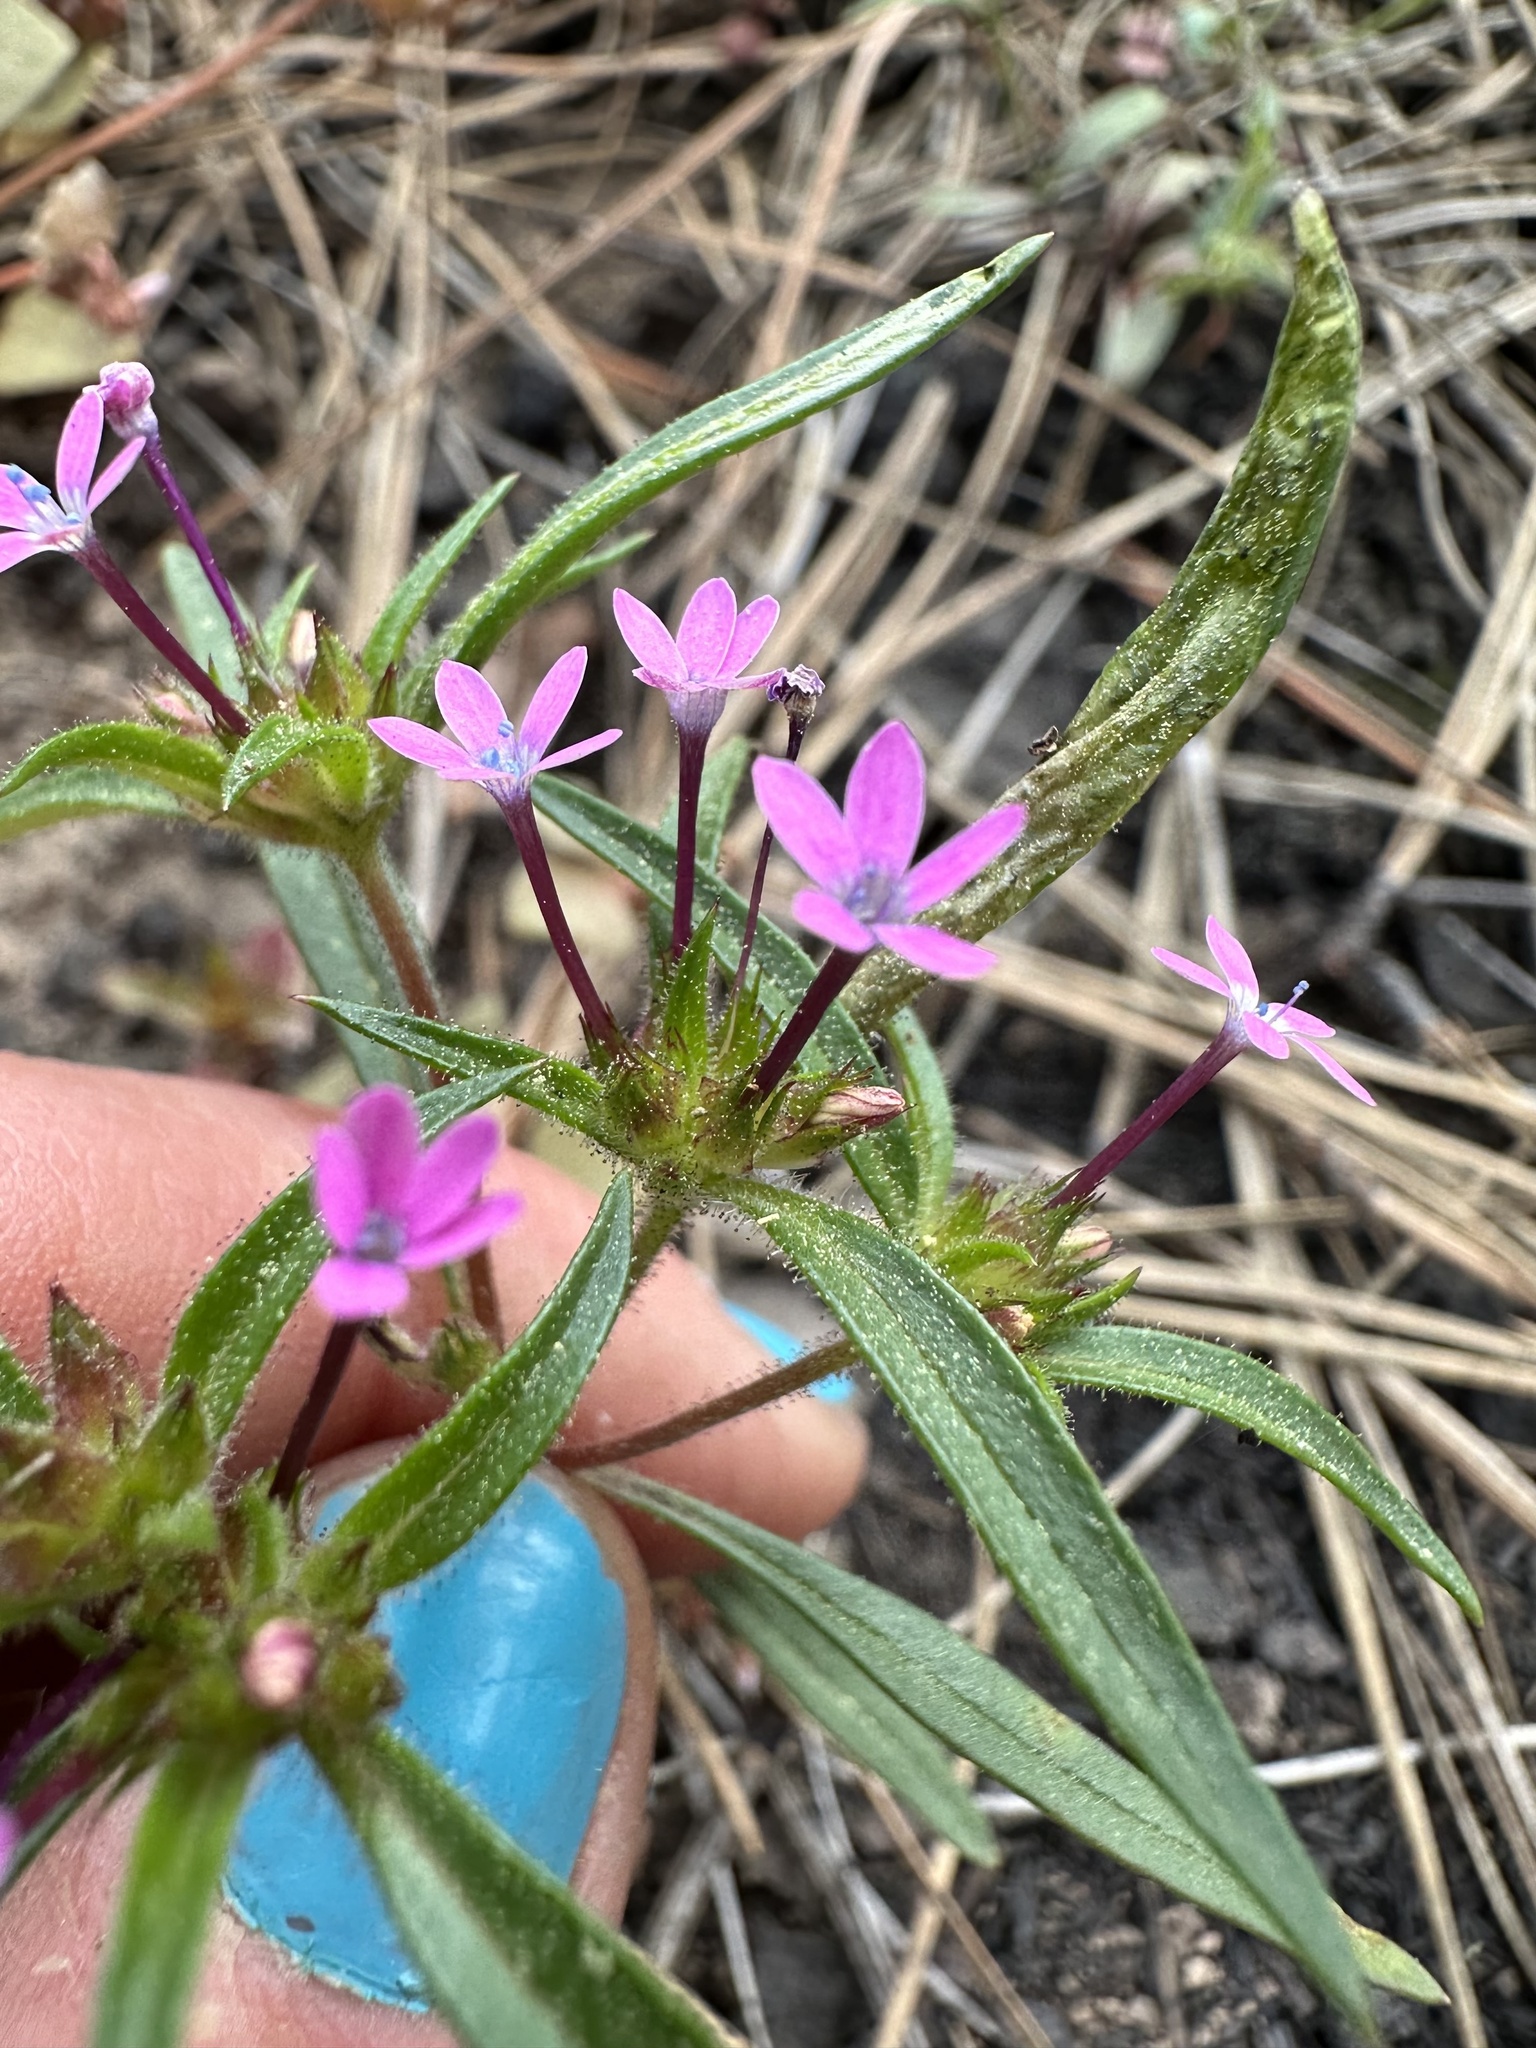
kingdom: Plantae
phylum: Tracheophyta
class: Magnoliopsida
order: Ericales
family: Polemoniaceae
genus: Collomia
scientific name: Collomia tinctoria
